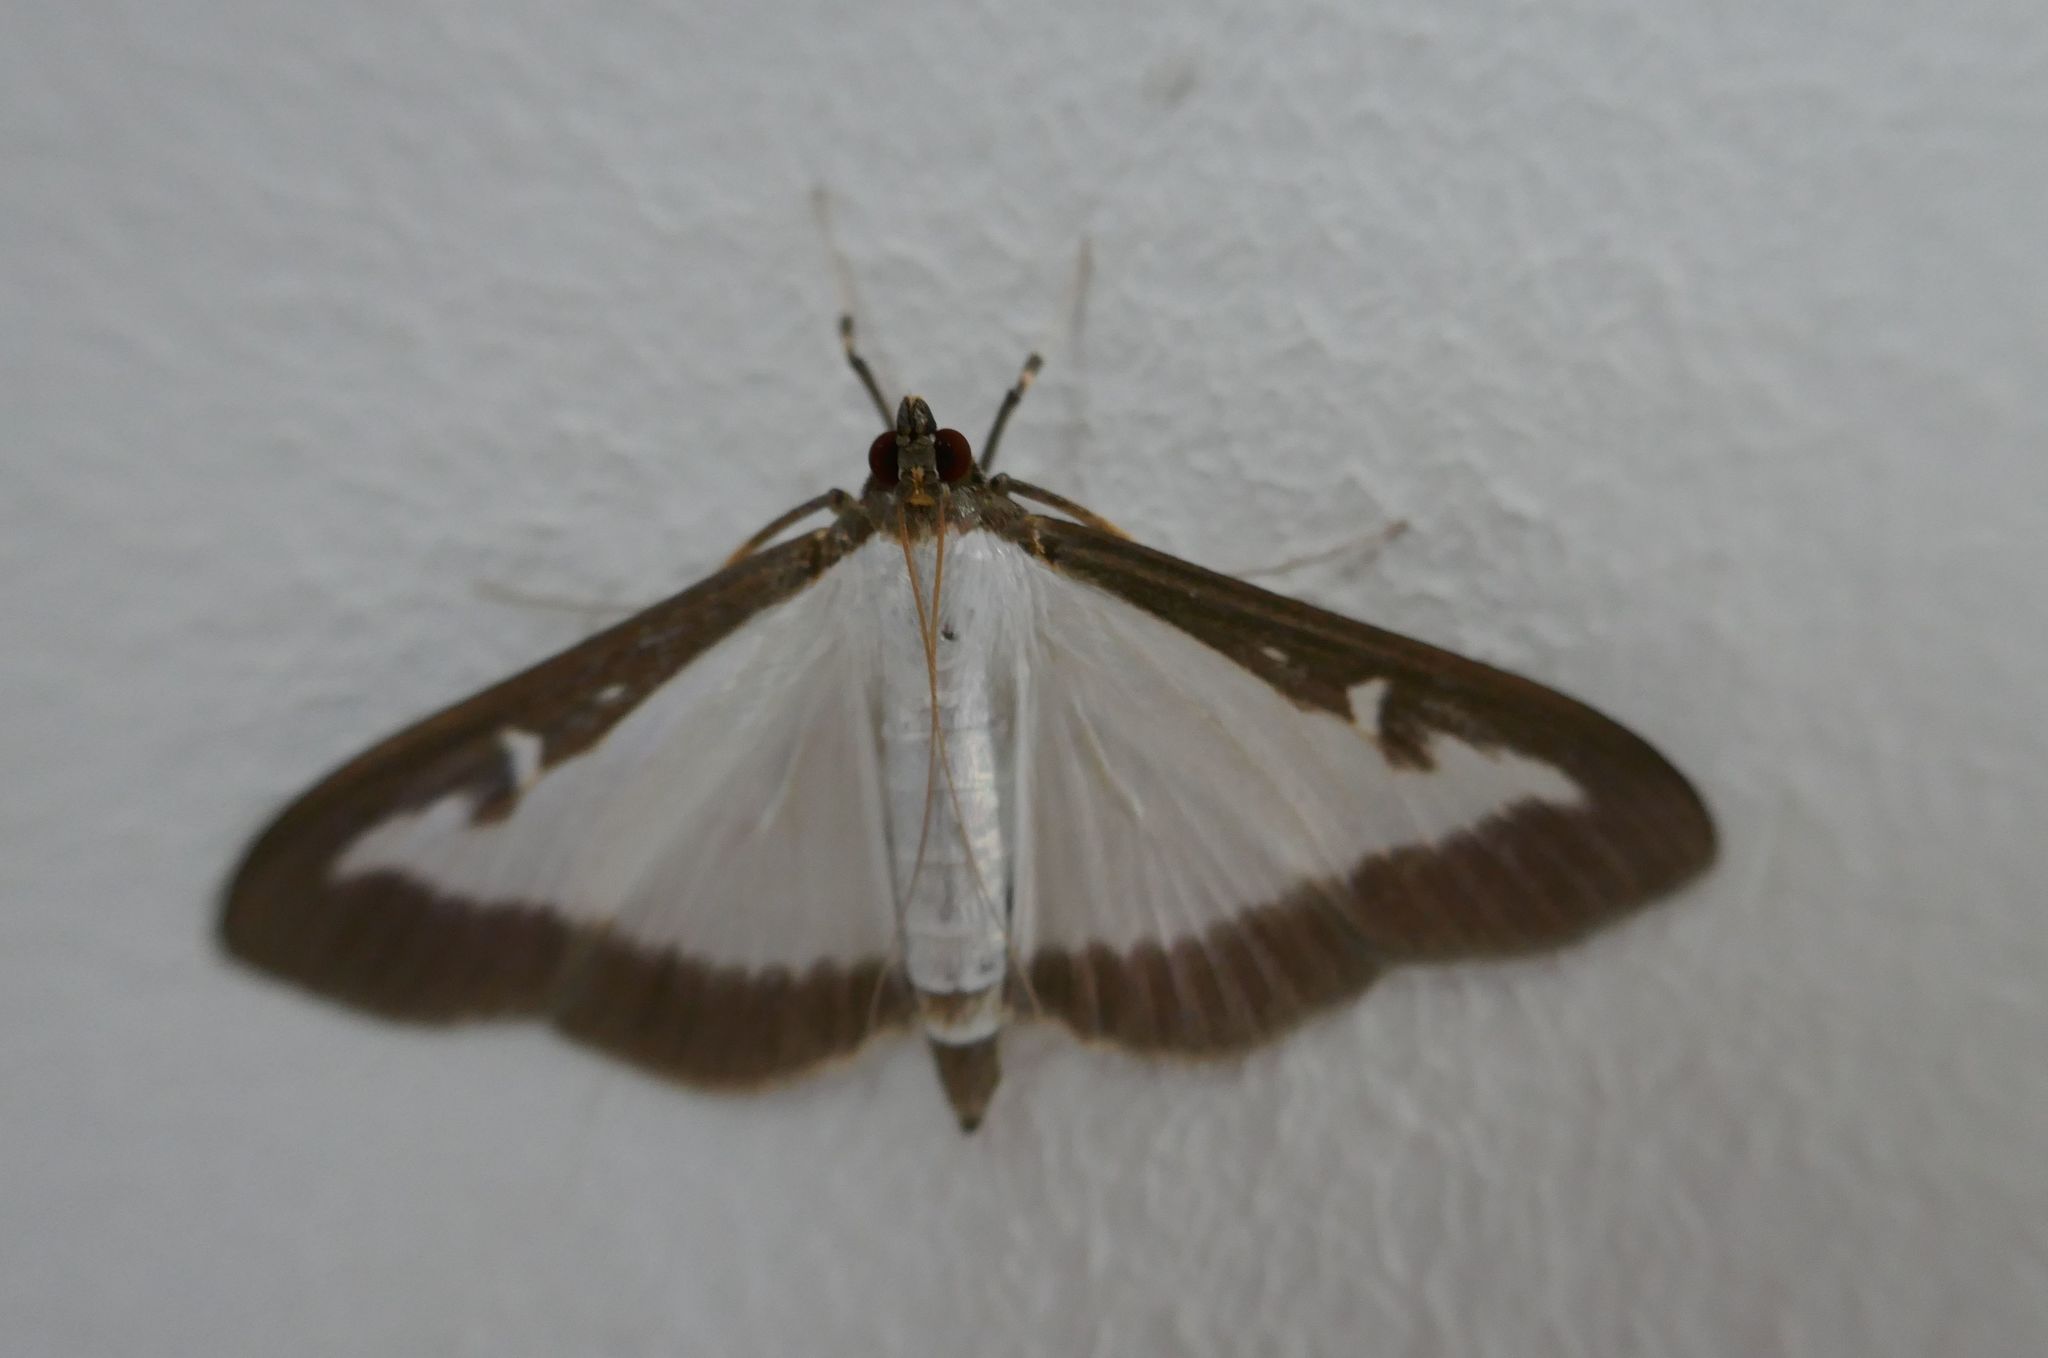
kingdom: Animalia
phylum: Arthropoda
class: Insecta
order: Lepidoptera
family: Crambidae
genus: Cydalima
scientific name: Cydalima perspectalis
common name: Box tree moth
